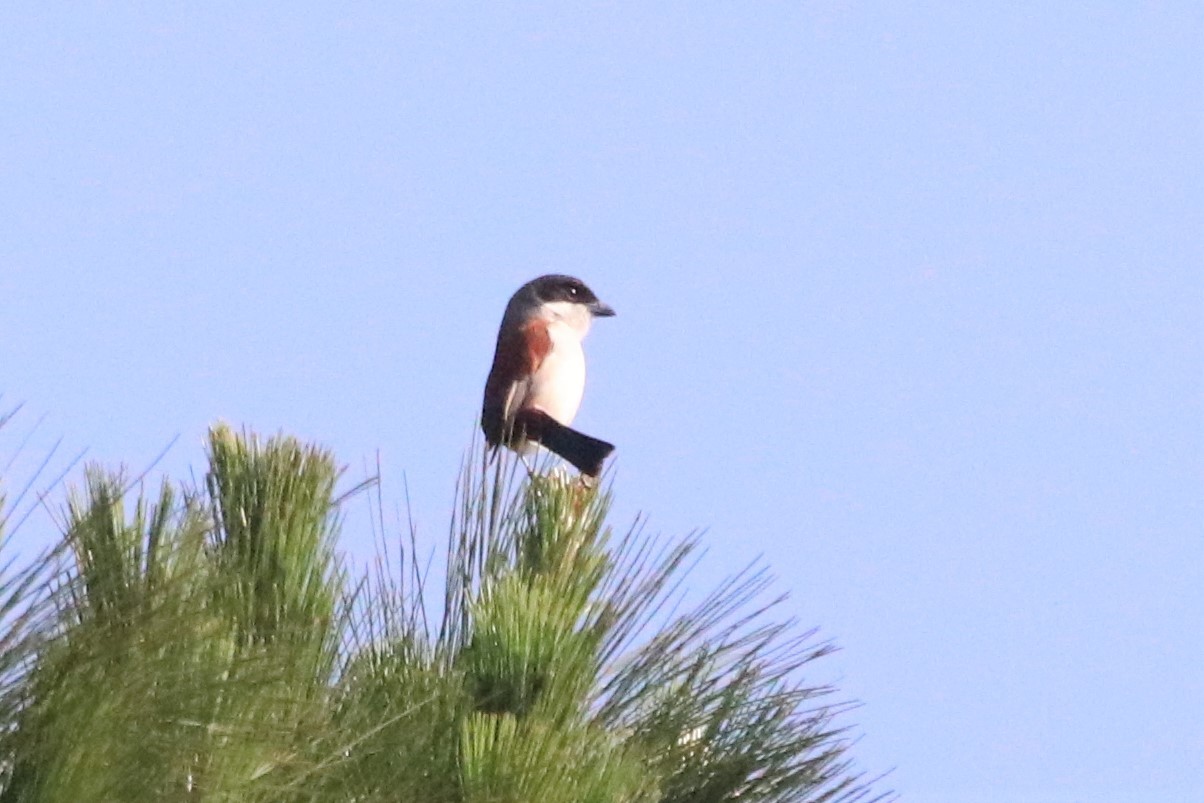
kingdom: Animalia
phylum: Chordata
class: Aves
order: Passeriformes
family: Laniidae
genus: Lanius
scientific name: Lanius collurioides
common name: Burmese shrike
